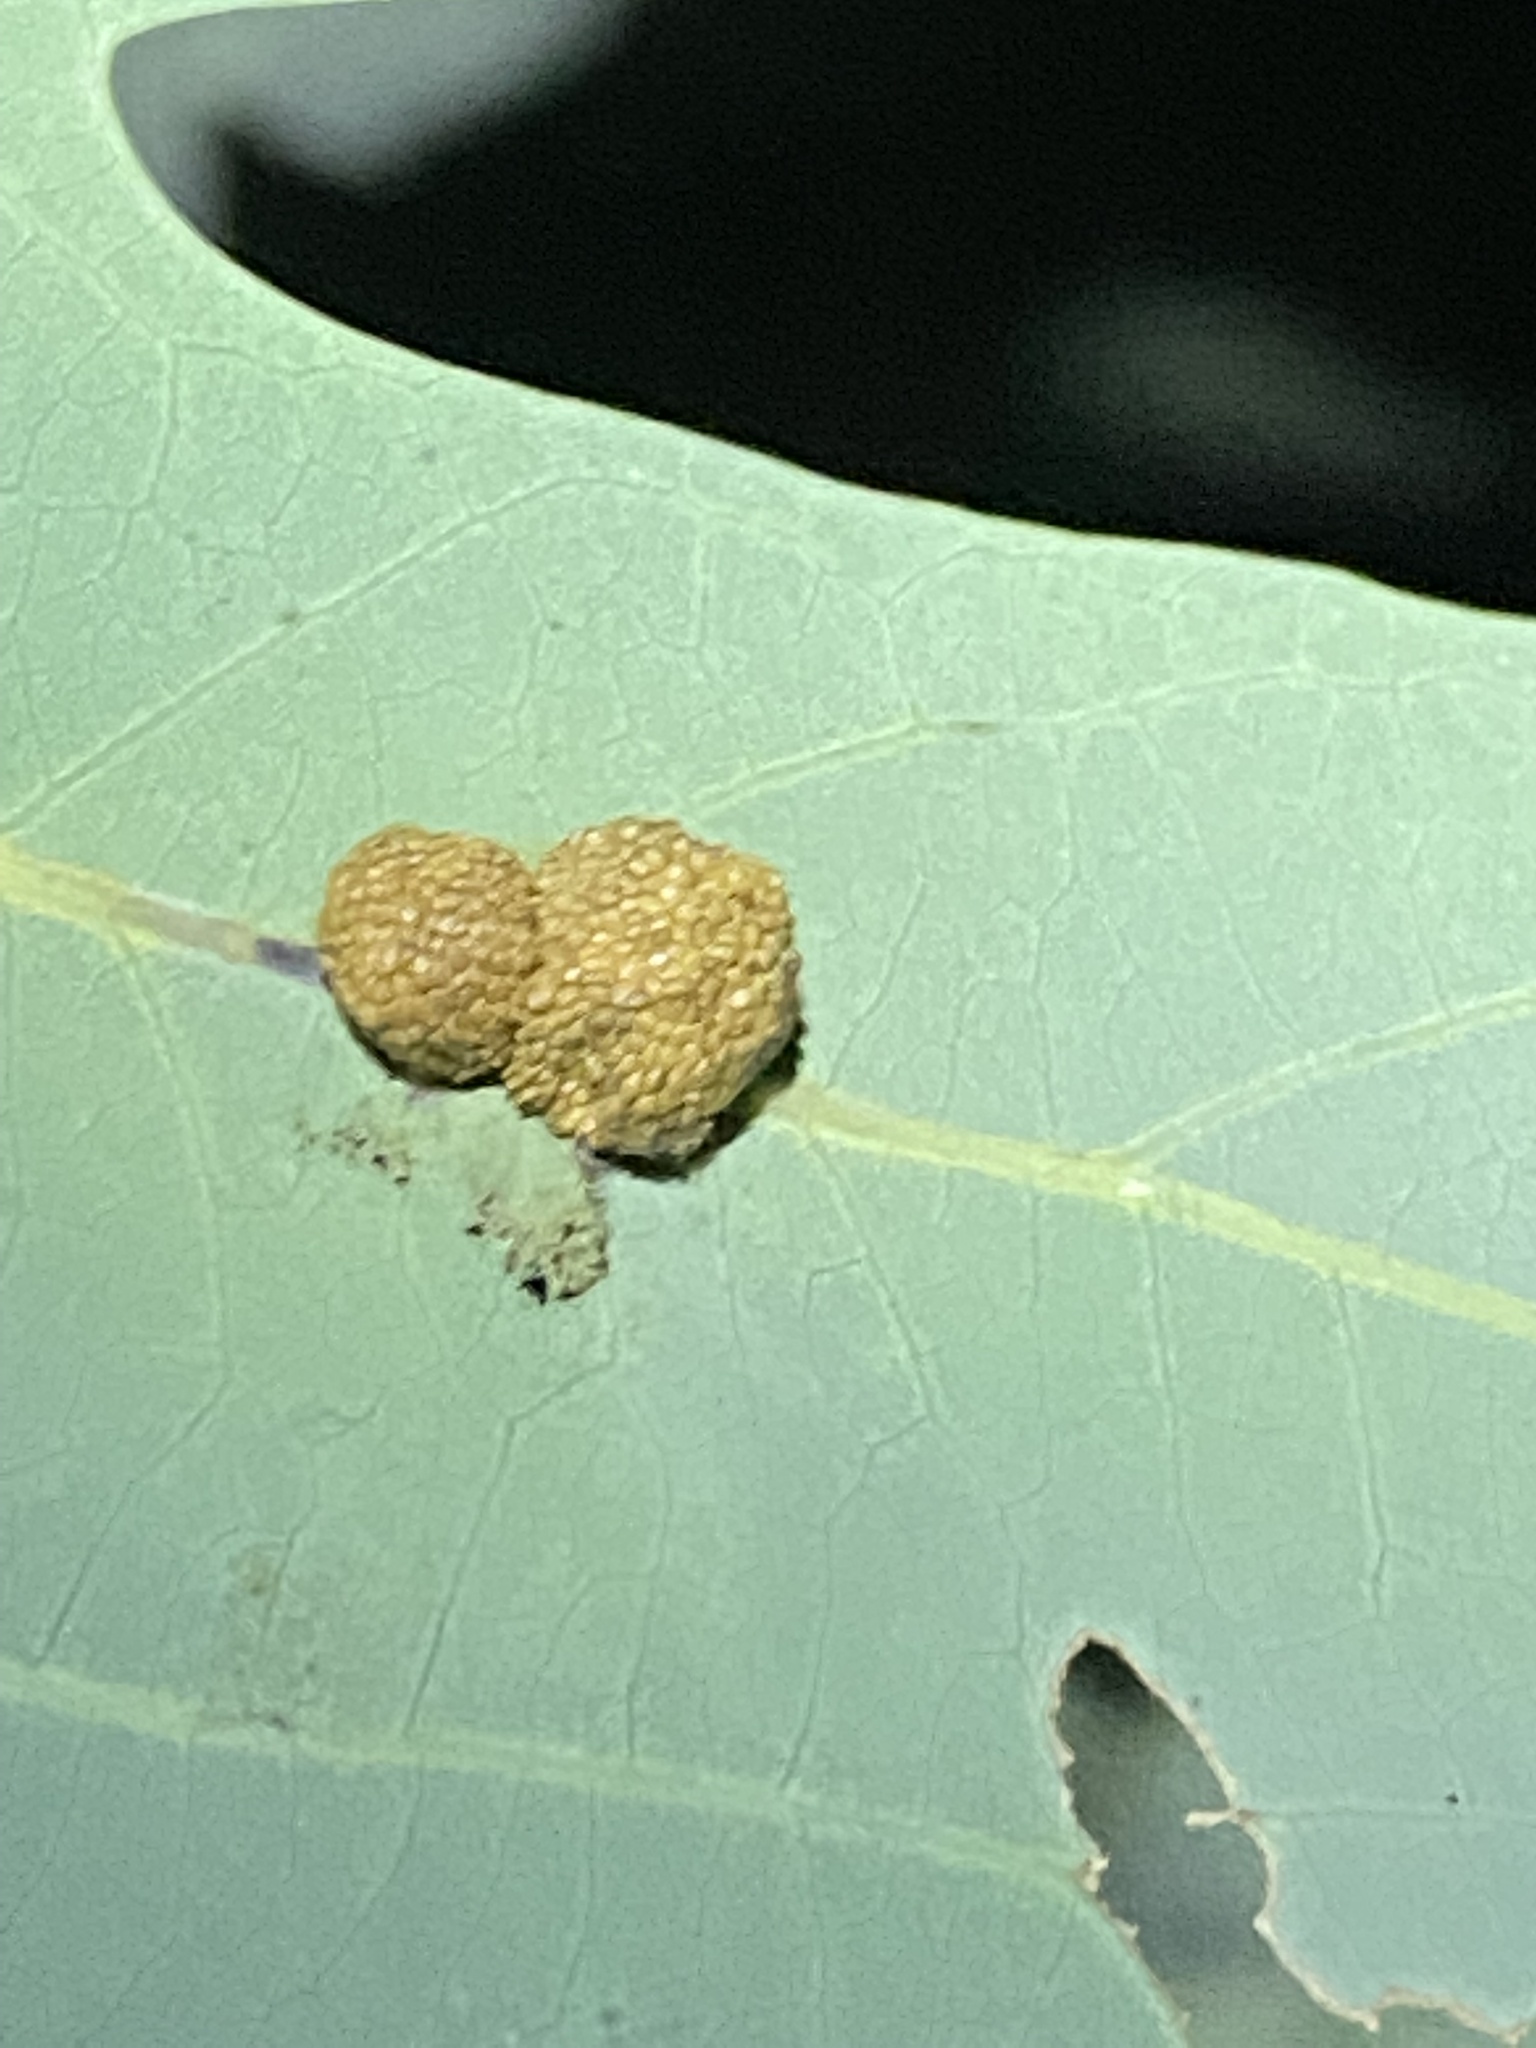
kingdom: Animalia
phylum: Arthropoda
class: Insecta
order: Hymenoptera
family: Cynipidae
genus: Acraspis
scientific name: Acraspis
